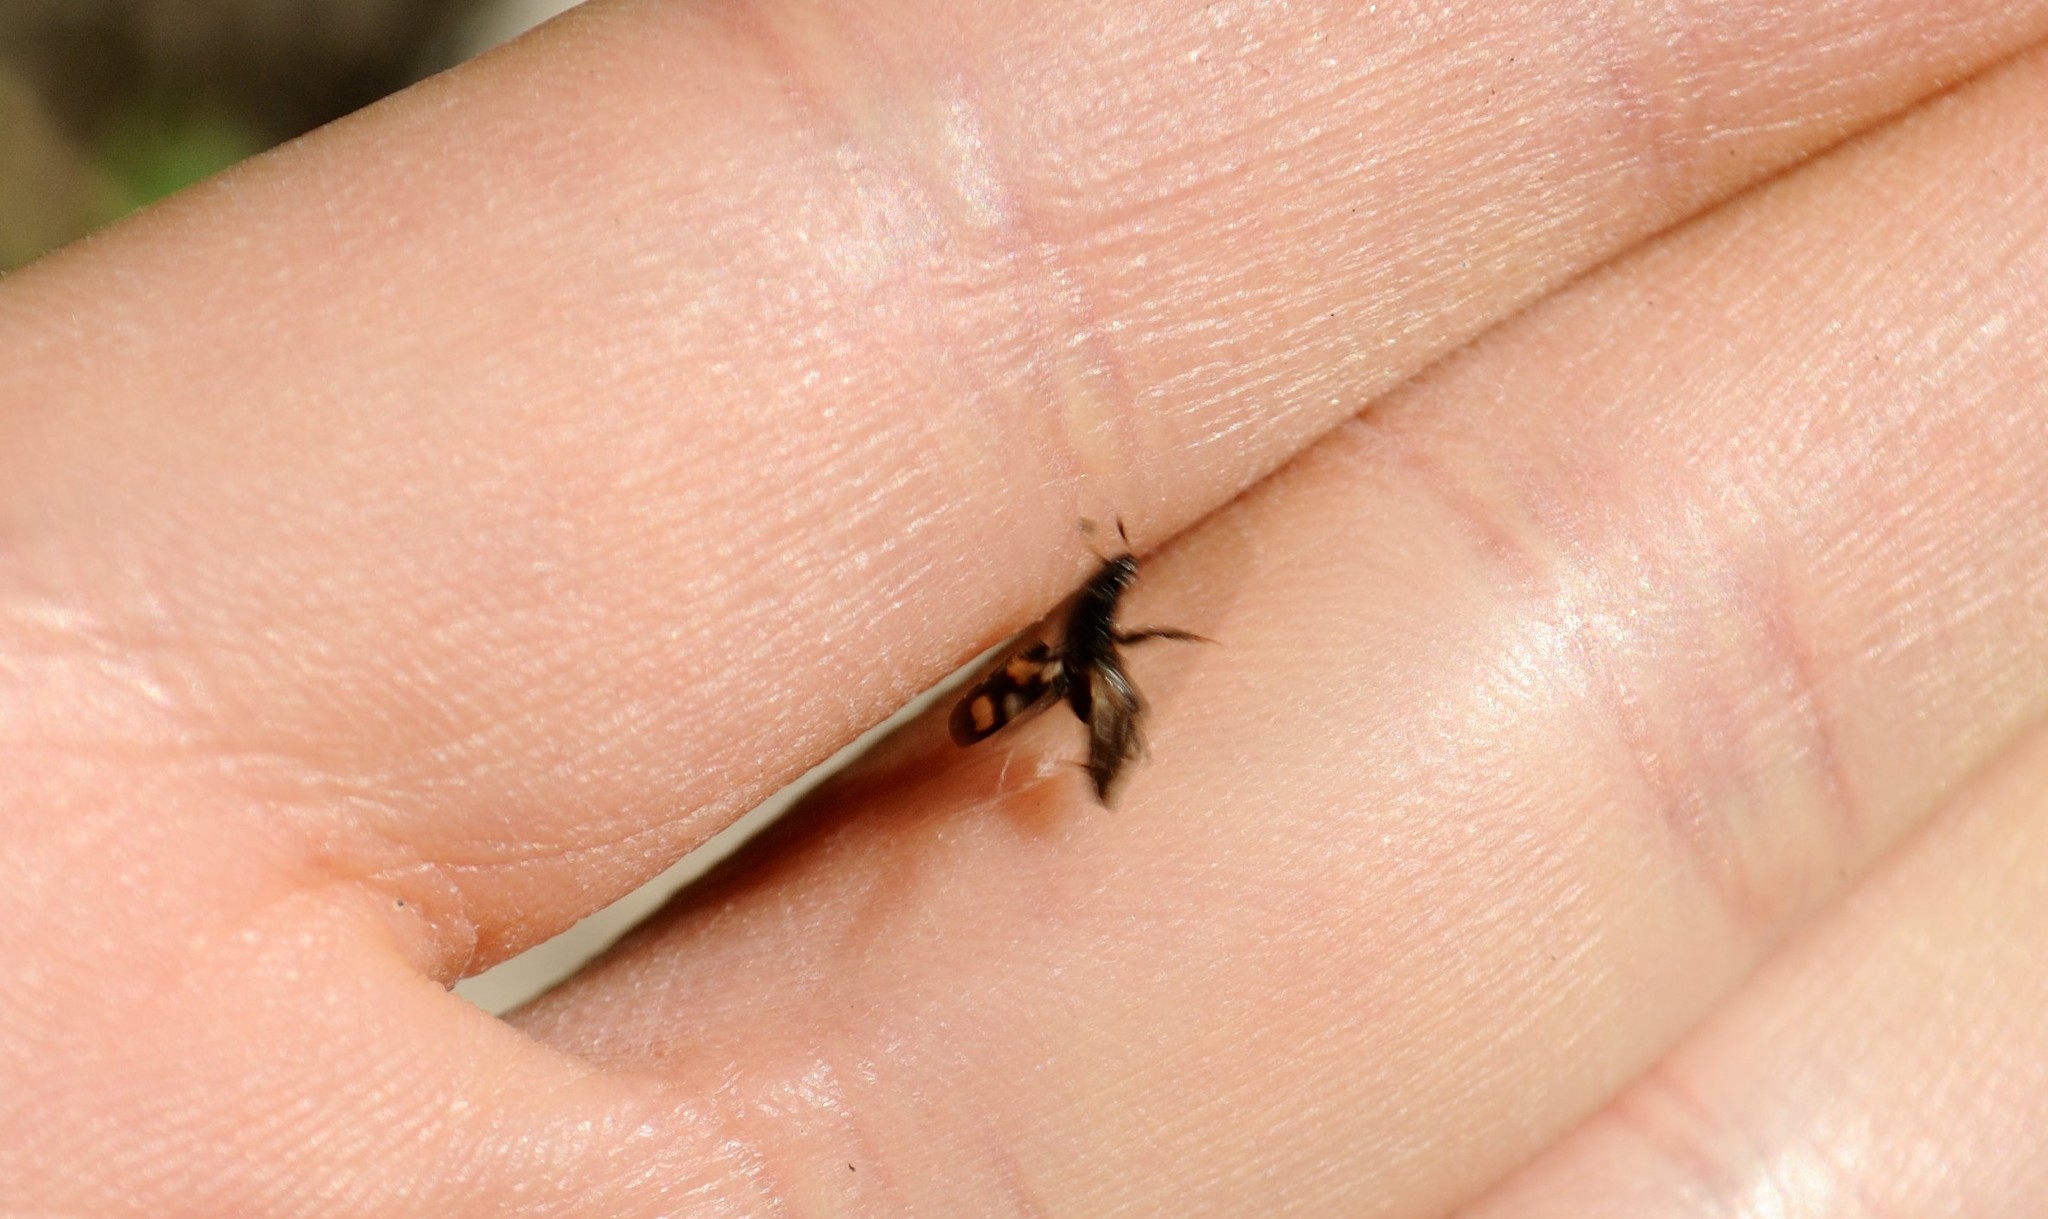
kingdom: Animalia
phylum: Arthropoda
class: Insecta
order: Coleoptera
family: Nitidulidae
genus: Glischrochilus
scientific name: Glischrochilus quadrisignatus
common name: Picnic beetle
